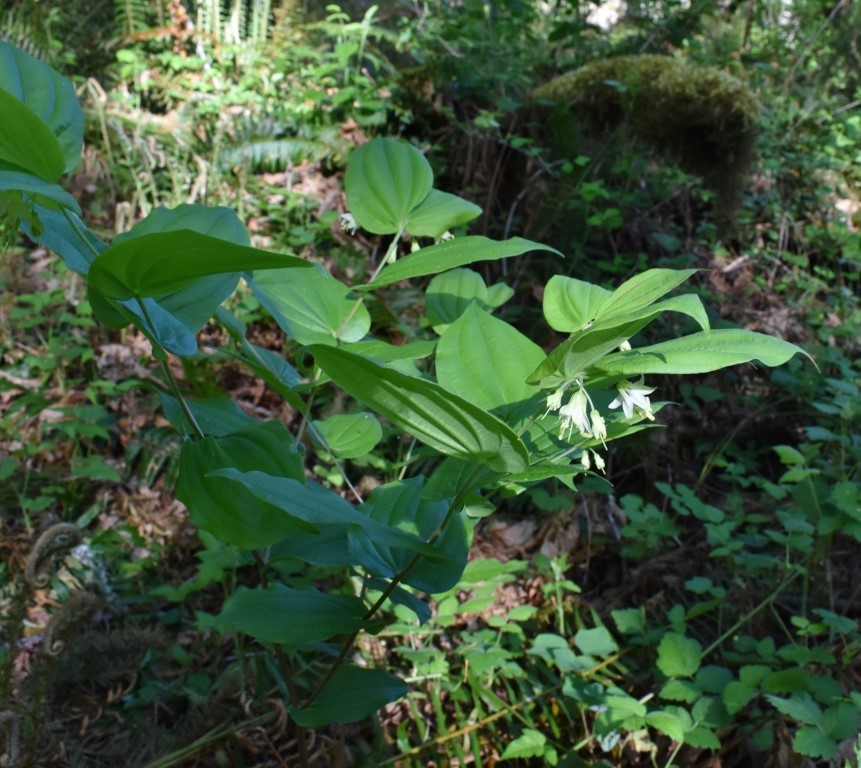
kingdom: Plantae
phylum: Tracheophyta
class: Liliopsida
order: Liliales
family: Liliaceae
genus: Prosartes
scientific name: Prosartes hookeri
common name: Fairy-bells
